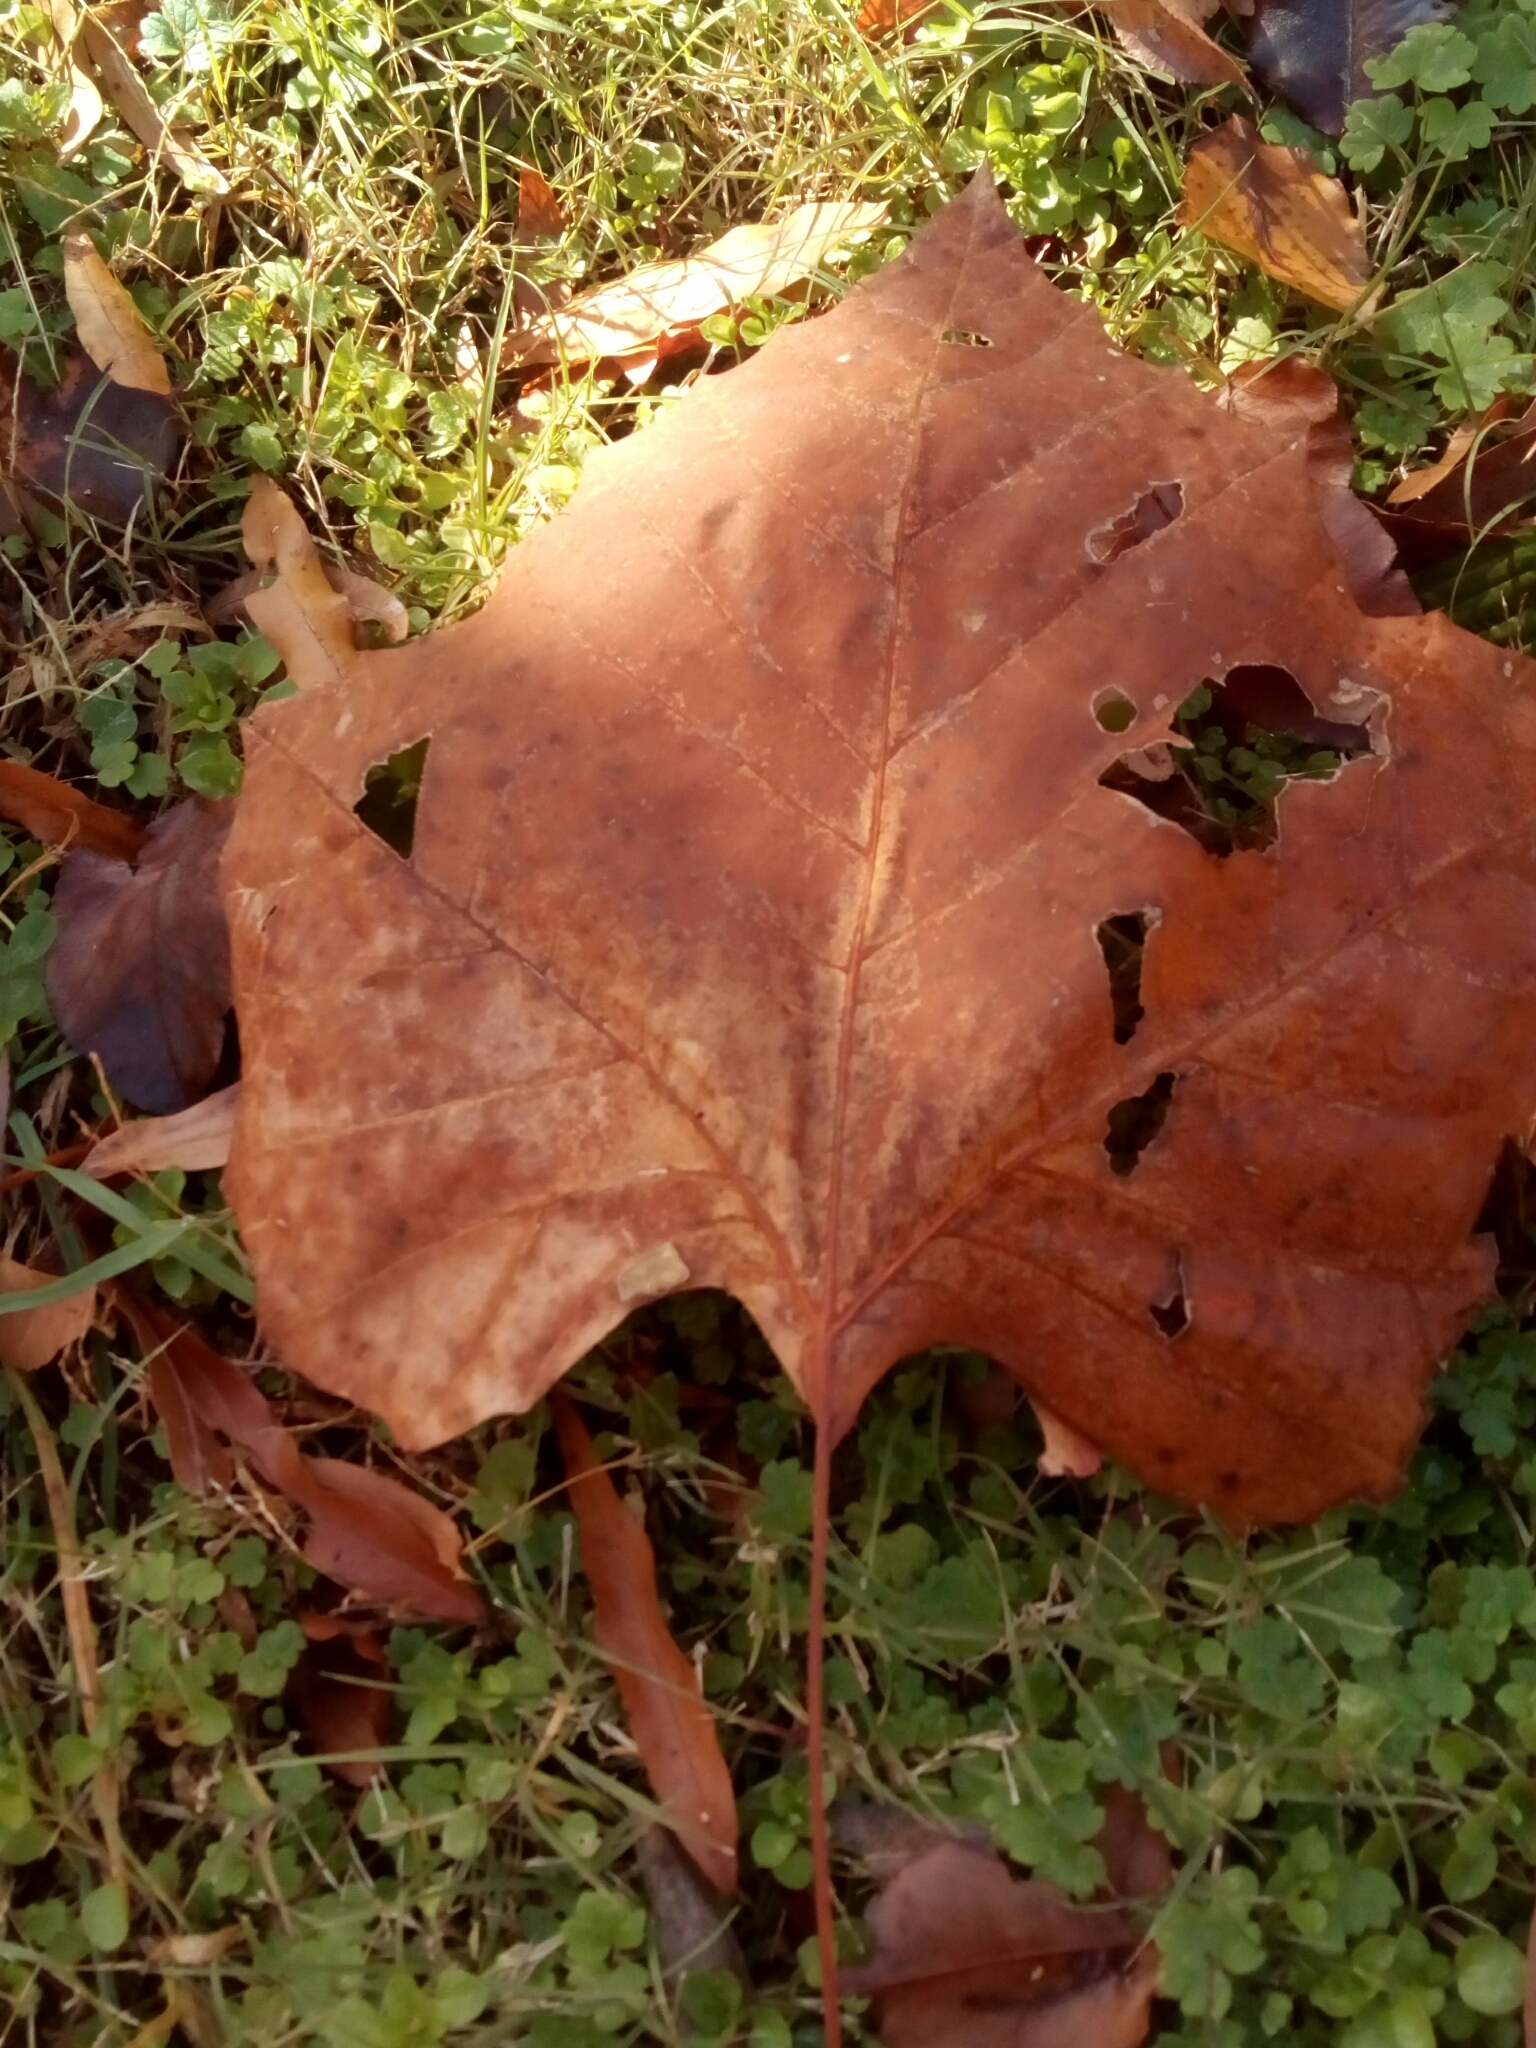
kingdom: Plantae
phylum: Tracheophyta
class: Magnoliopsida
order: Proteales
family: Platanaceae
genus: Platanus
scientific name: Platanus occidentalis
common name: American sycamore
